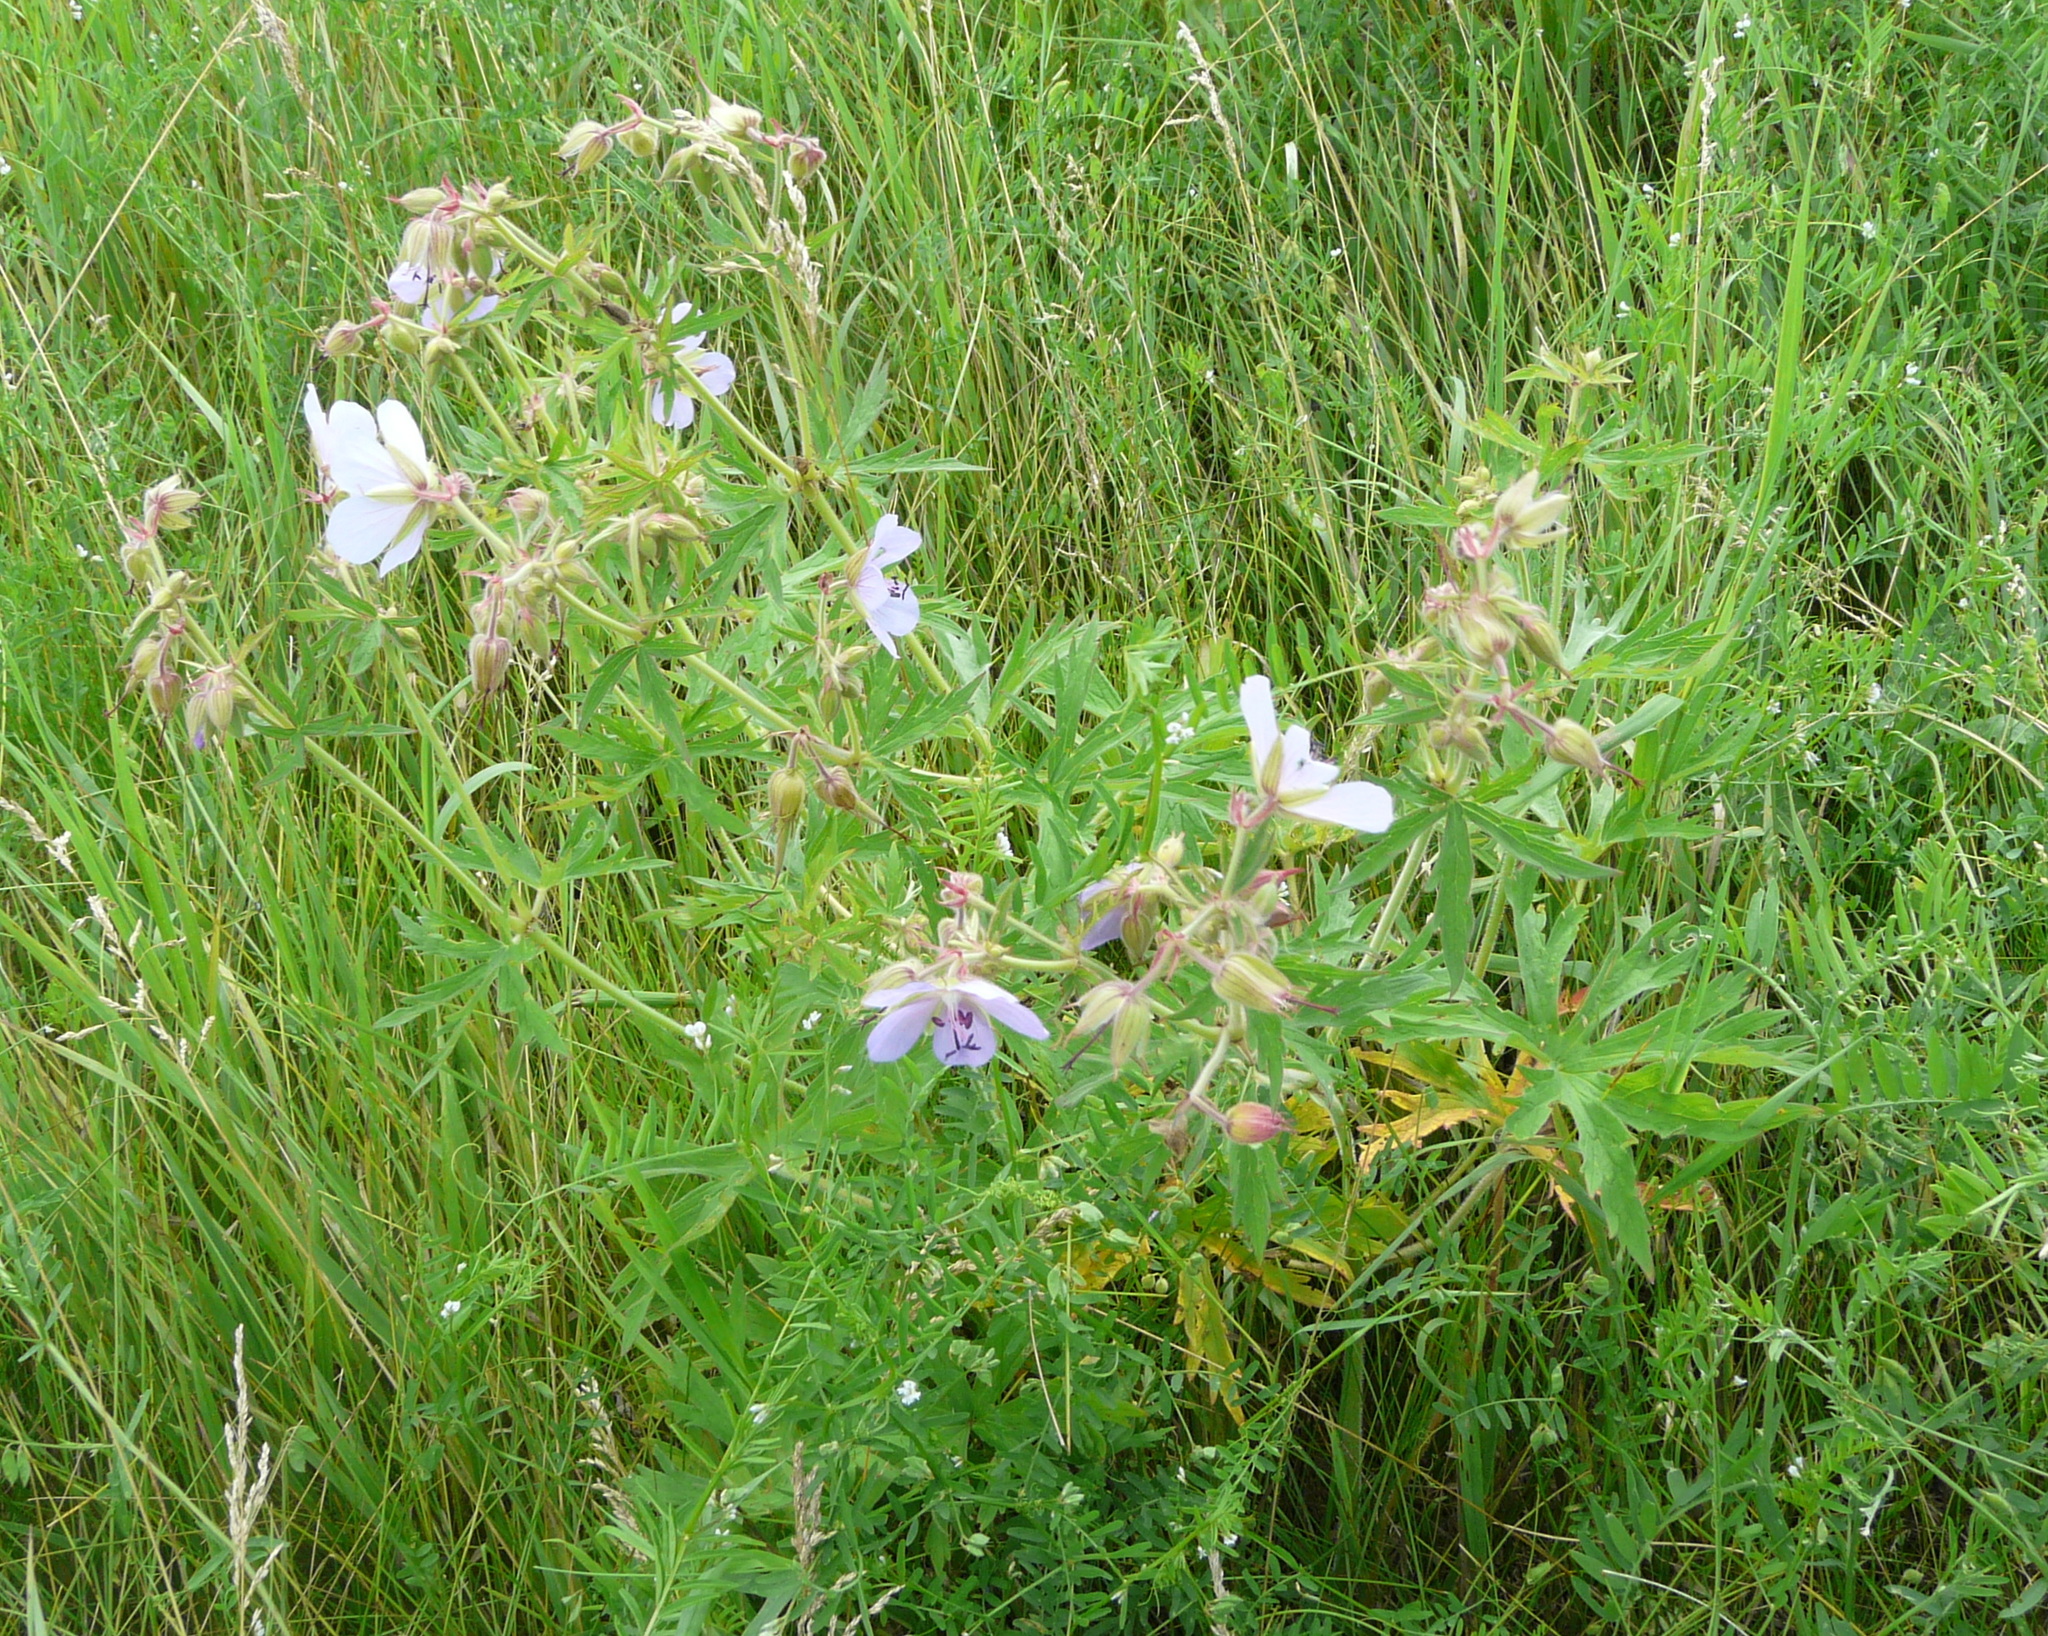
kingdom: Plantae
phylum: Tracheophyta
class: Magnoliopsida
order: Geraniales
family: Geraniaceae
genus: Geranium
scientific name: Geranium pratense
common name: Meadow crane's-bill
